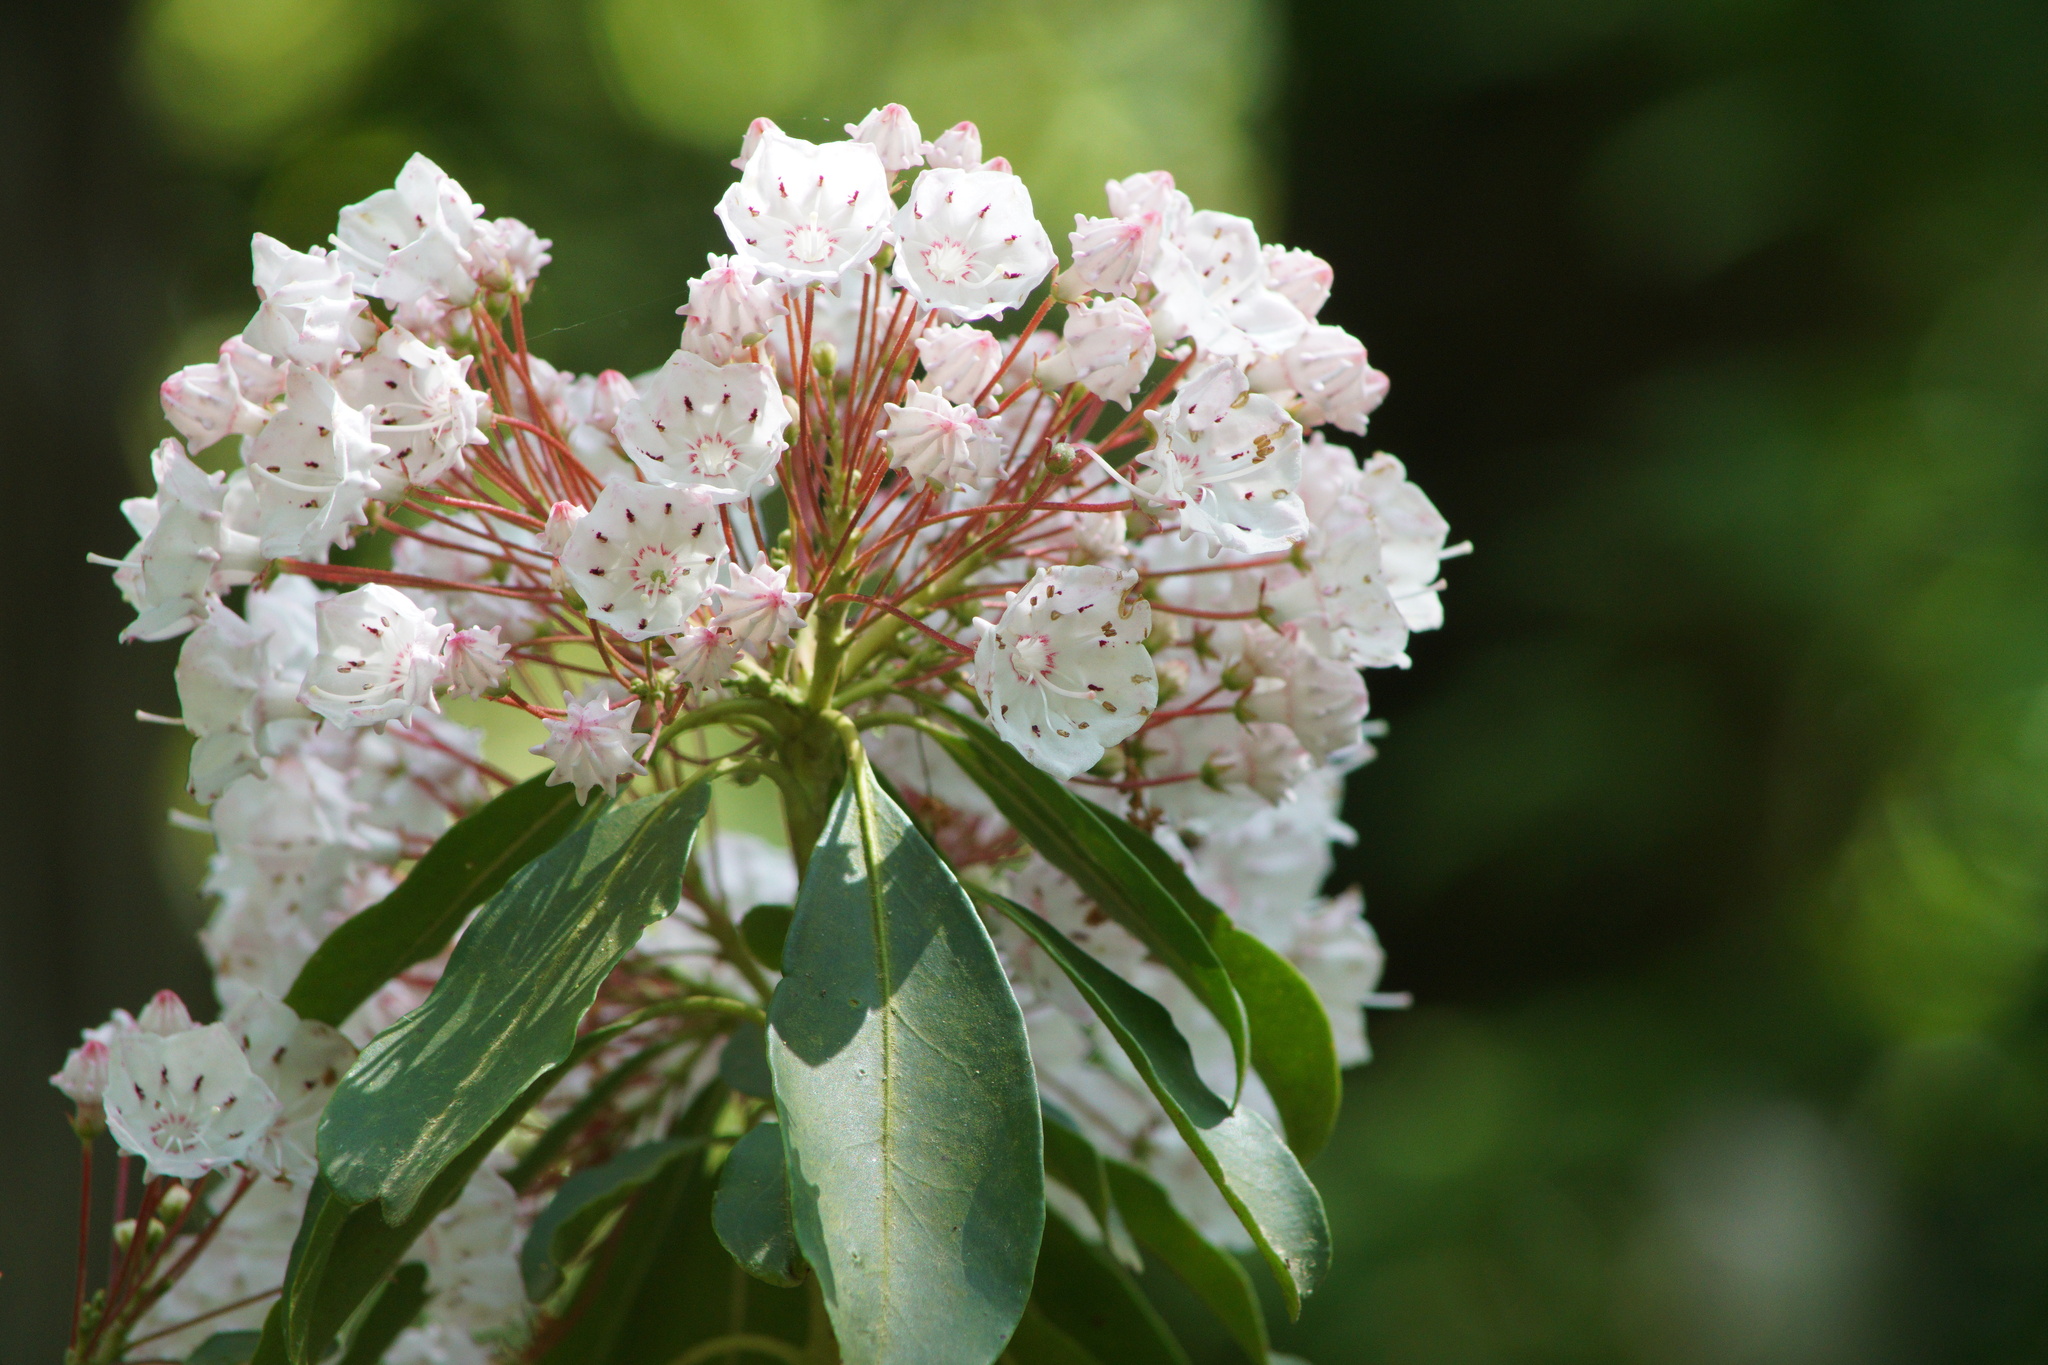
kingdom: Plantae
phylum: Tracheophyta
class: Magnoliopsida
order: Ericales
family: Ericaceae
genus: Kalmia
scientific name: Kalmia latifolia
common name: Mountain-laurel
